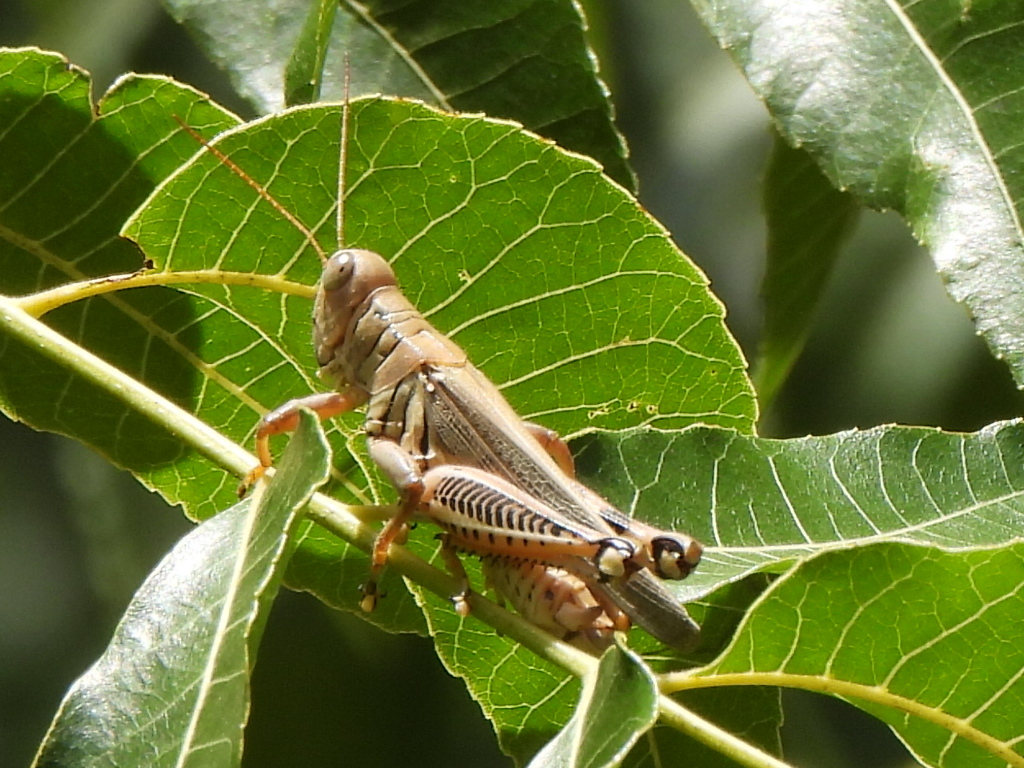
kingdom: Animalia
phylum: Arthropoda
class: Insecta
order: Orthoptera
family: Acrididae
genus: Melanoplus
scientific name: Melanoplus differentialis
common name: Differential grasshopper
